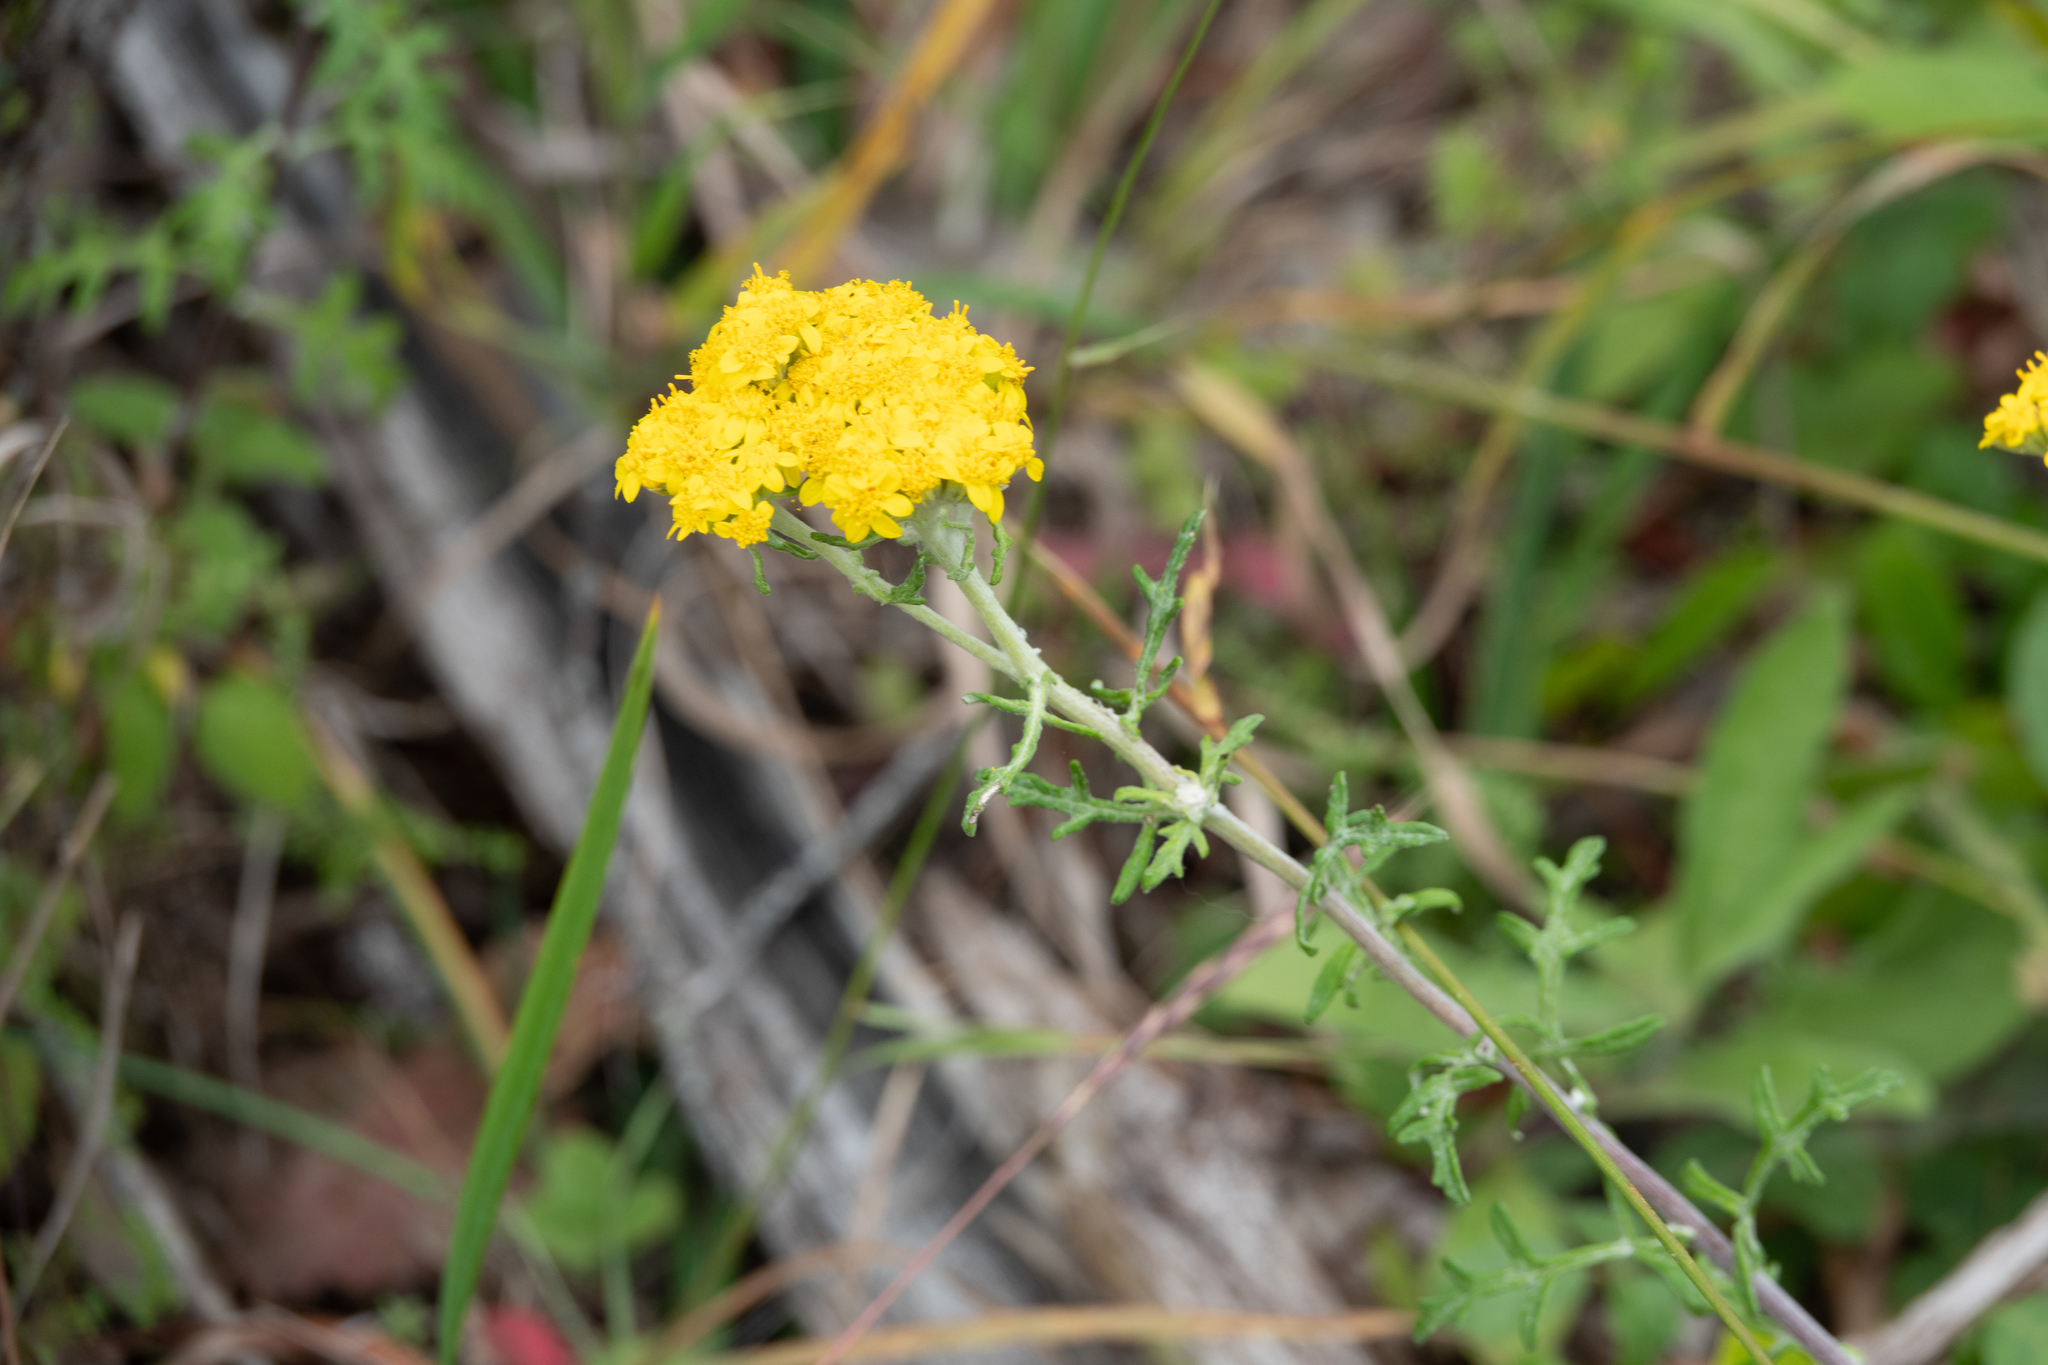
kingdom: Plantae
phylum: Tracheophyta
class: Magnoliopsida
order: Asterales
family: Asteraceae
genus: Eriophyllum
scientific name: Eriophyllum staechadifolium
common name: Lizardtail
